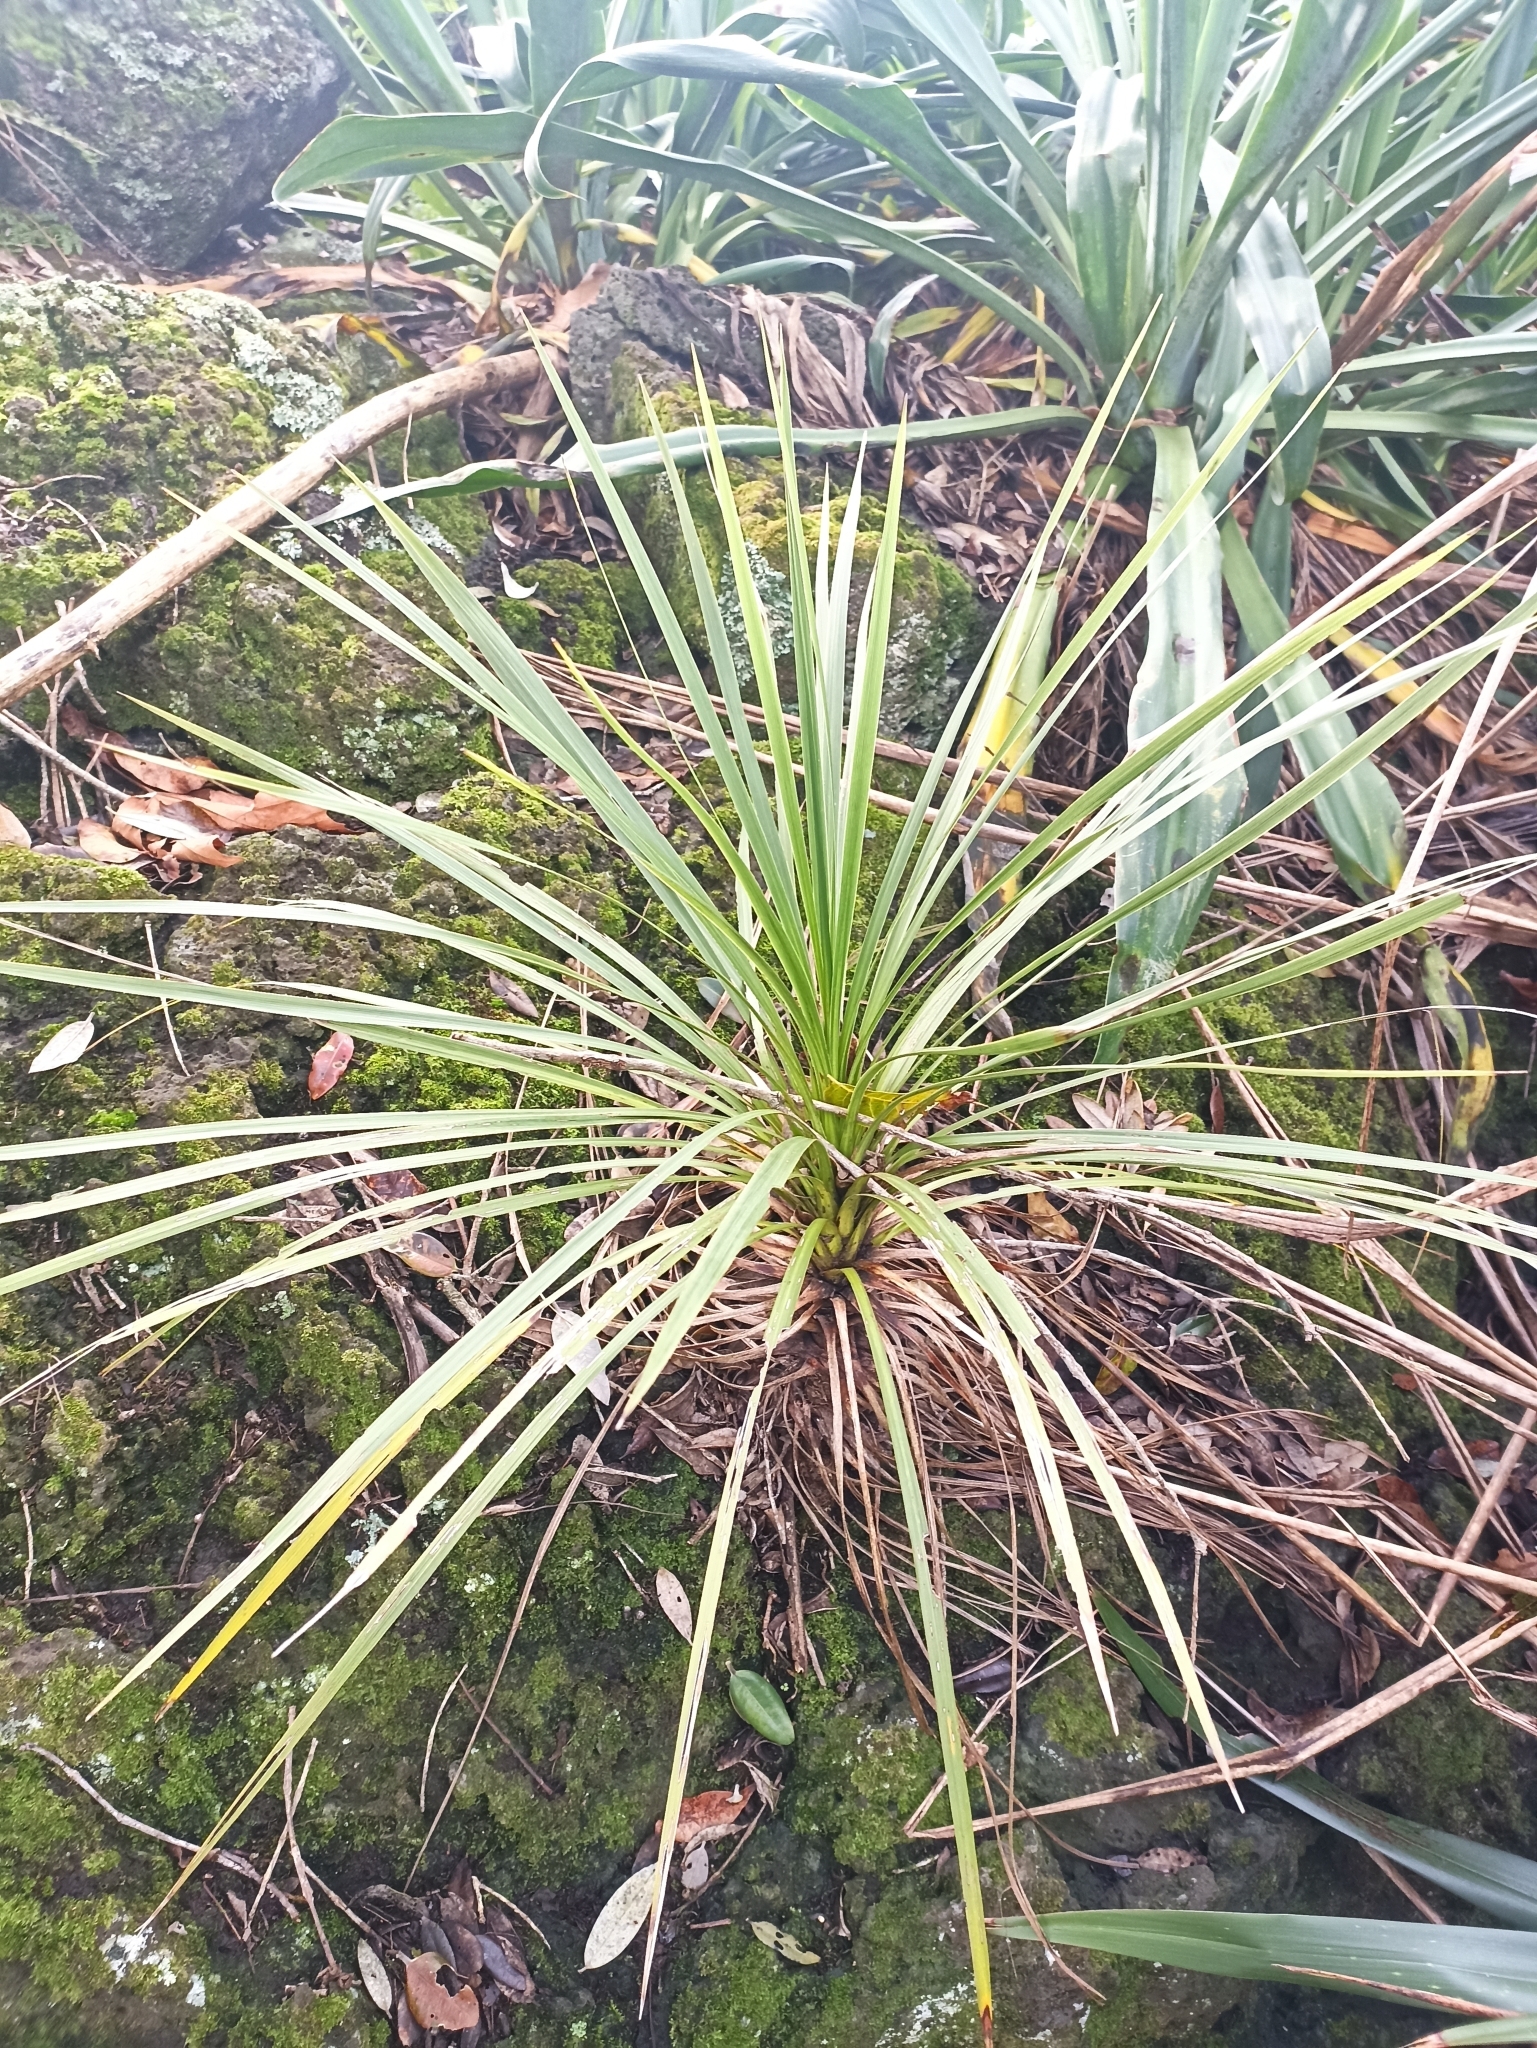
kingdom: Plantae
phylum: Tracheophyta
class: Liliopsida
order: Asparagales
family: Asparagaceae
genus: Cordyline
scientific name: Cordyline australis
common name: Cabbage-palm
